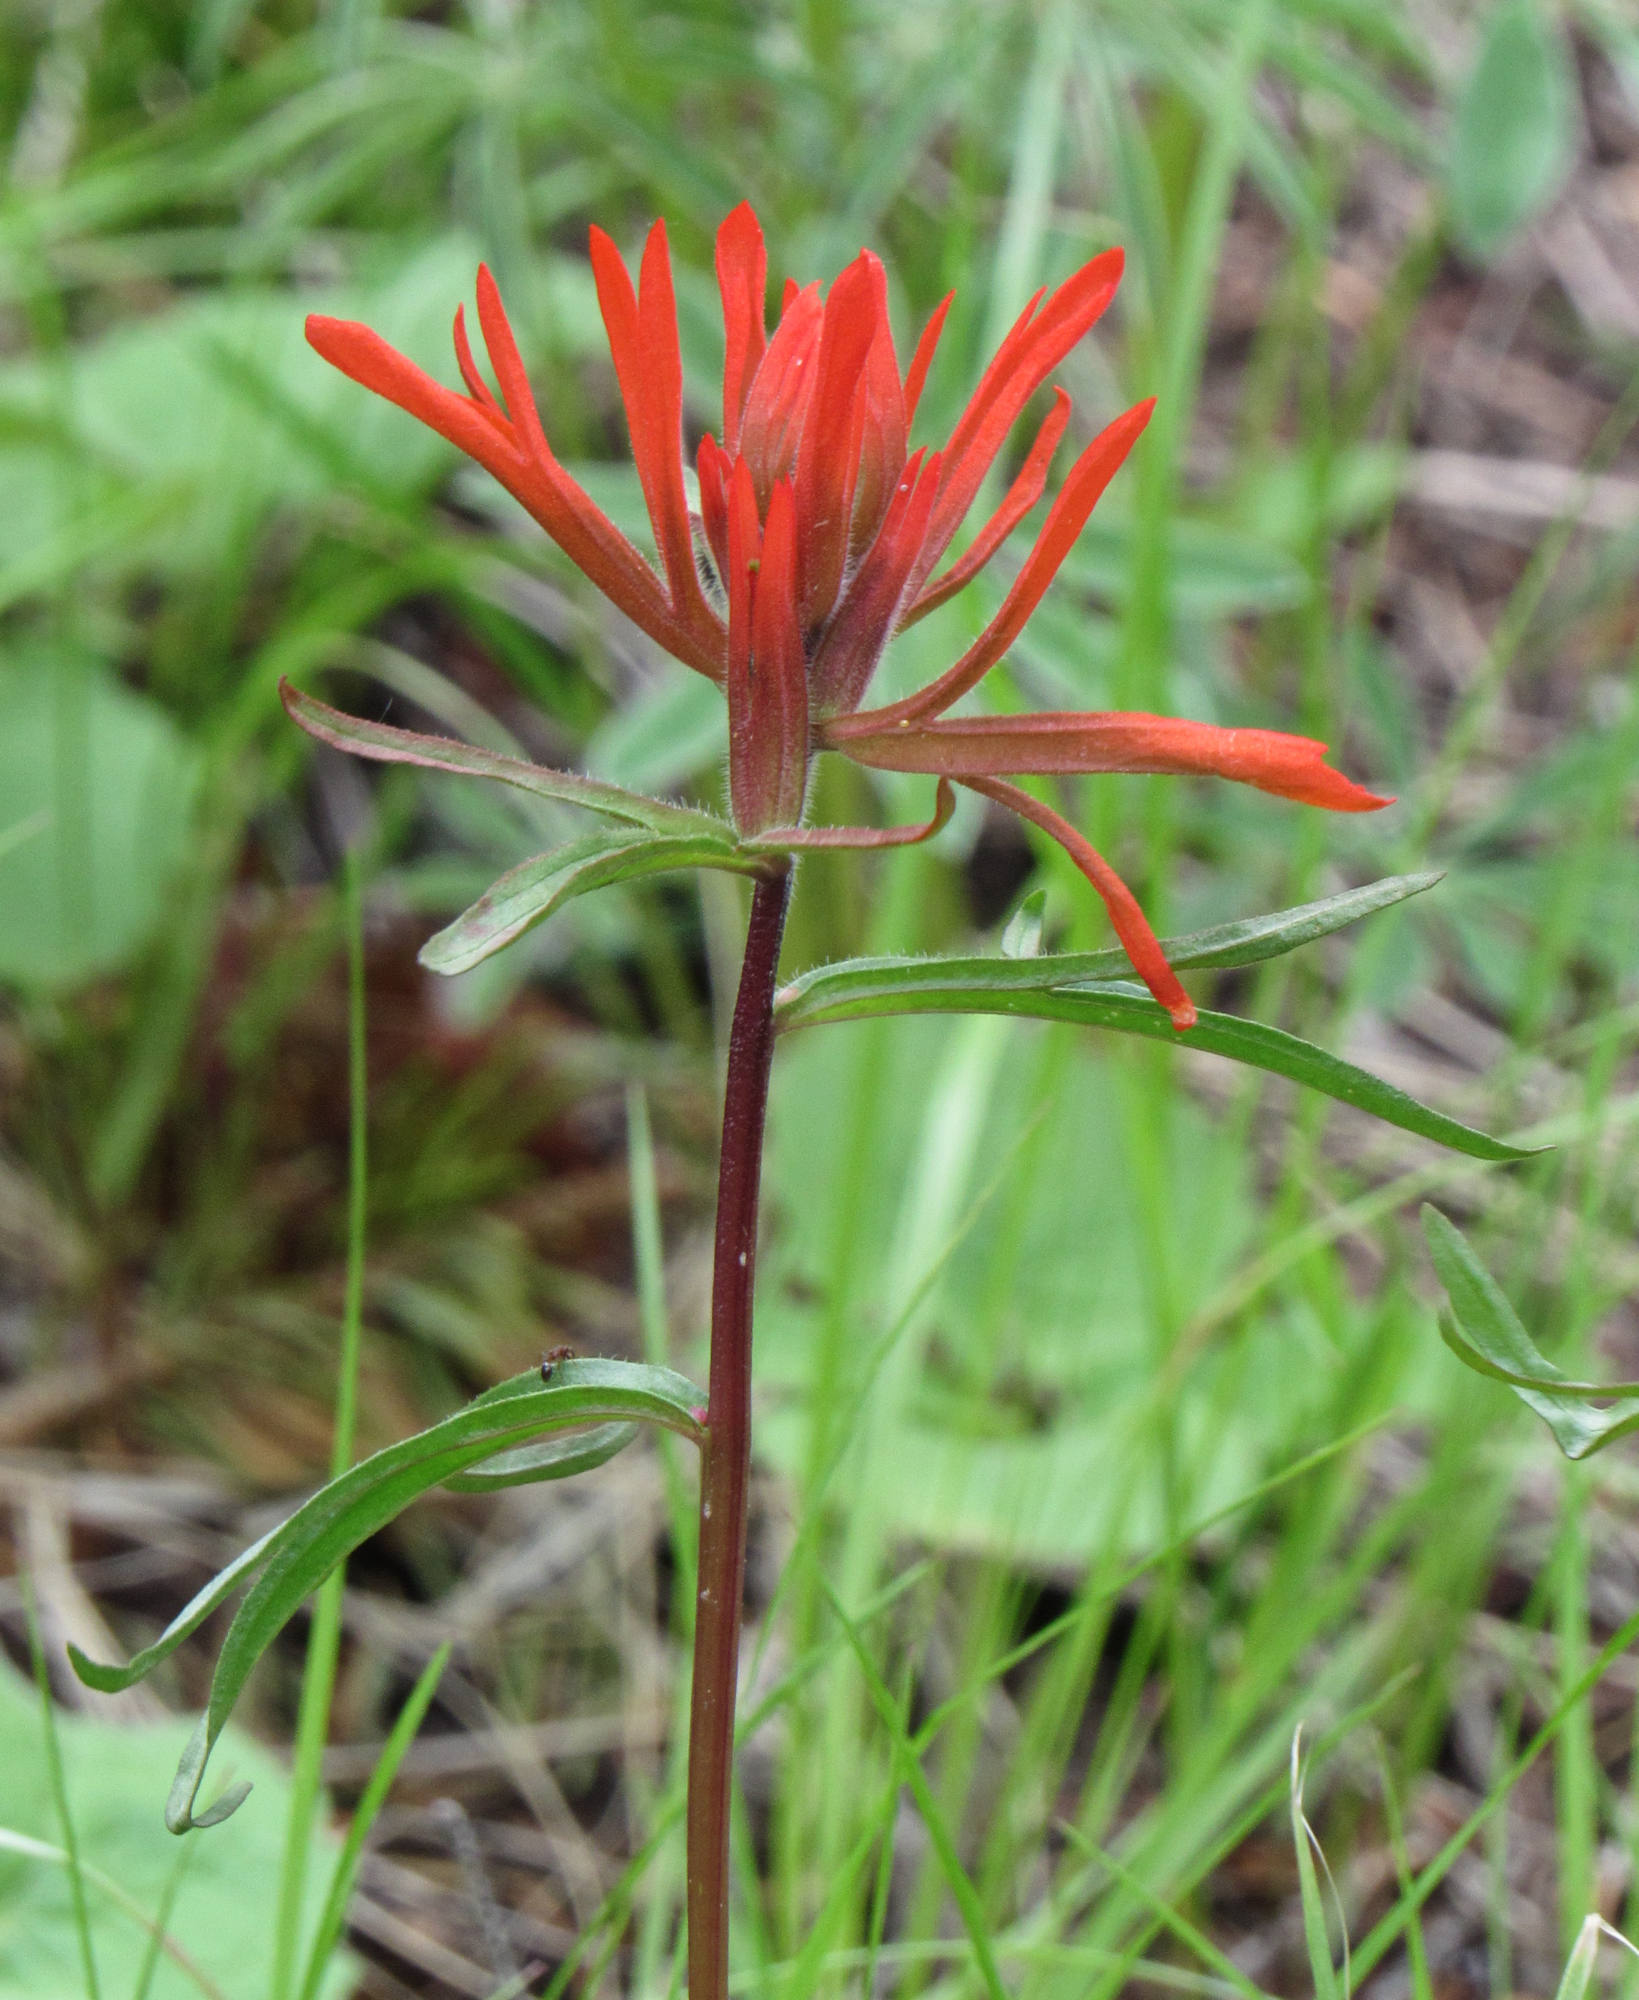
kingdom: Plantae
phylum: Tracheophyta
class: Magnoliopsida
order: Lamiales
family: Orobanchaceae
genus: Castilleja
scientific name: Castilleja crista-galli
